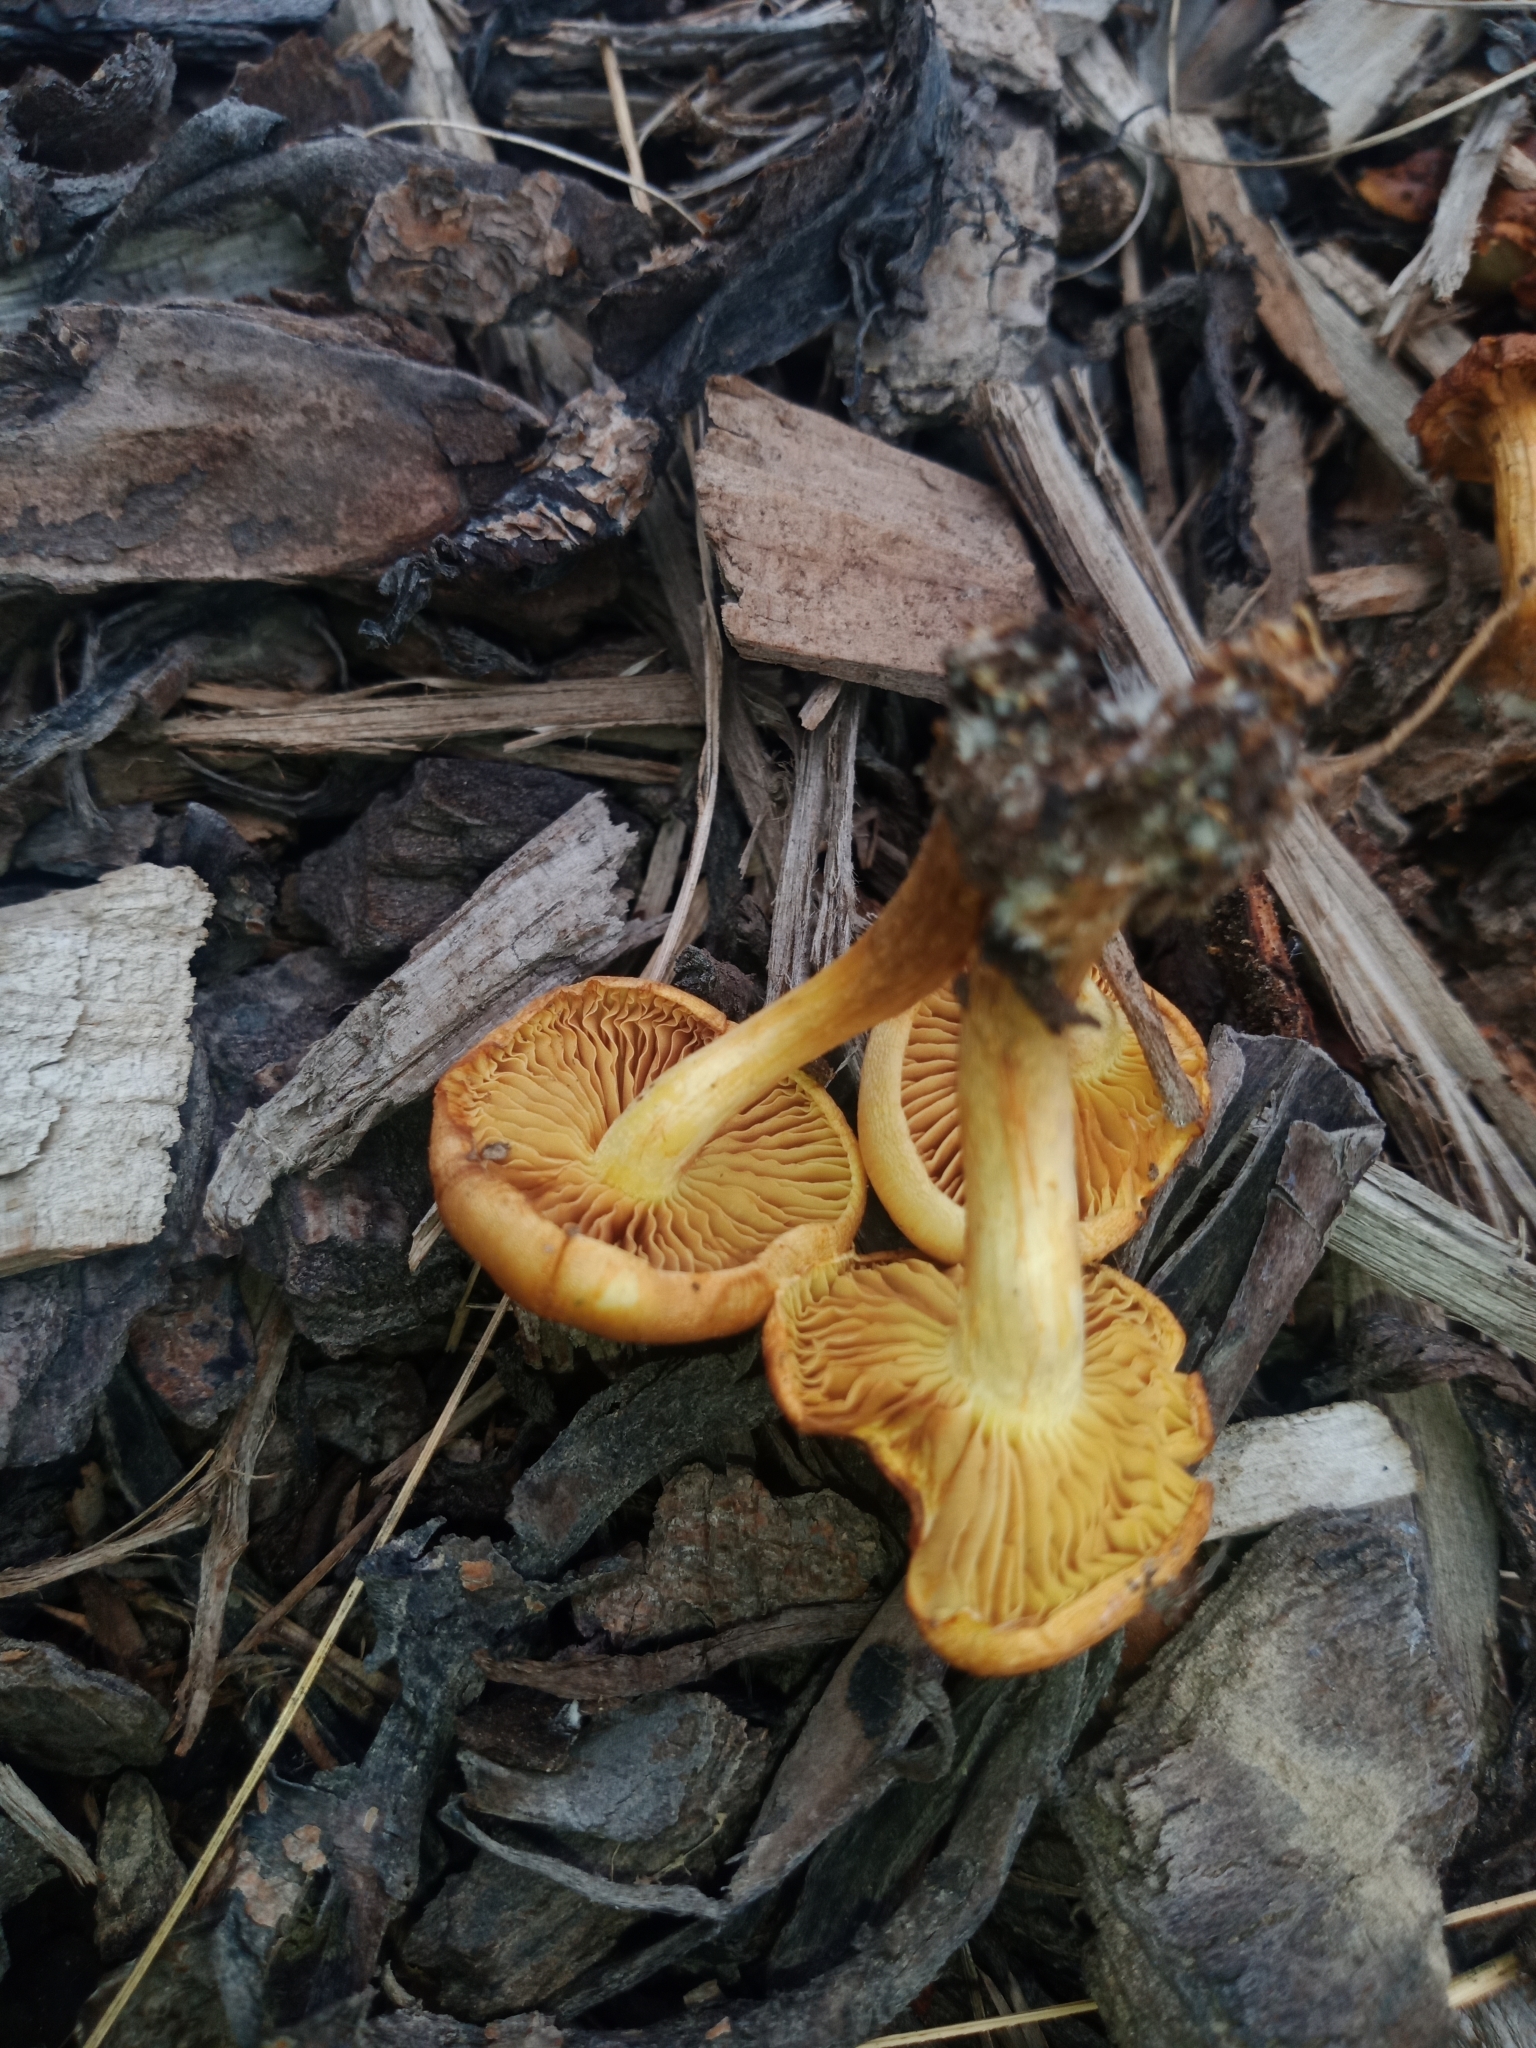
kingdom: Fungi
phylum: Basidiomycota
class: Agaricomycetes
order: Agaricales
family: Hymenogastraceae
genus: Gymnopilus
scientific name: Gymnopilus junonius
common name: Spectacular rustgill
